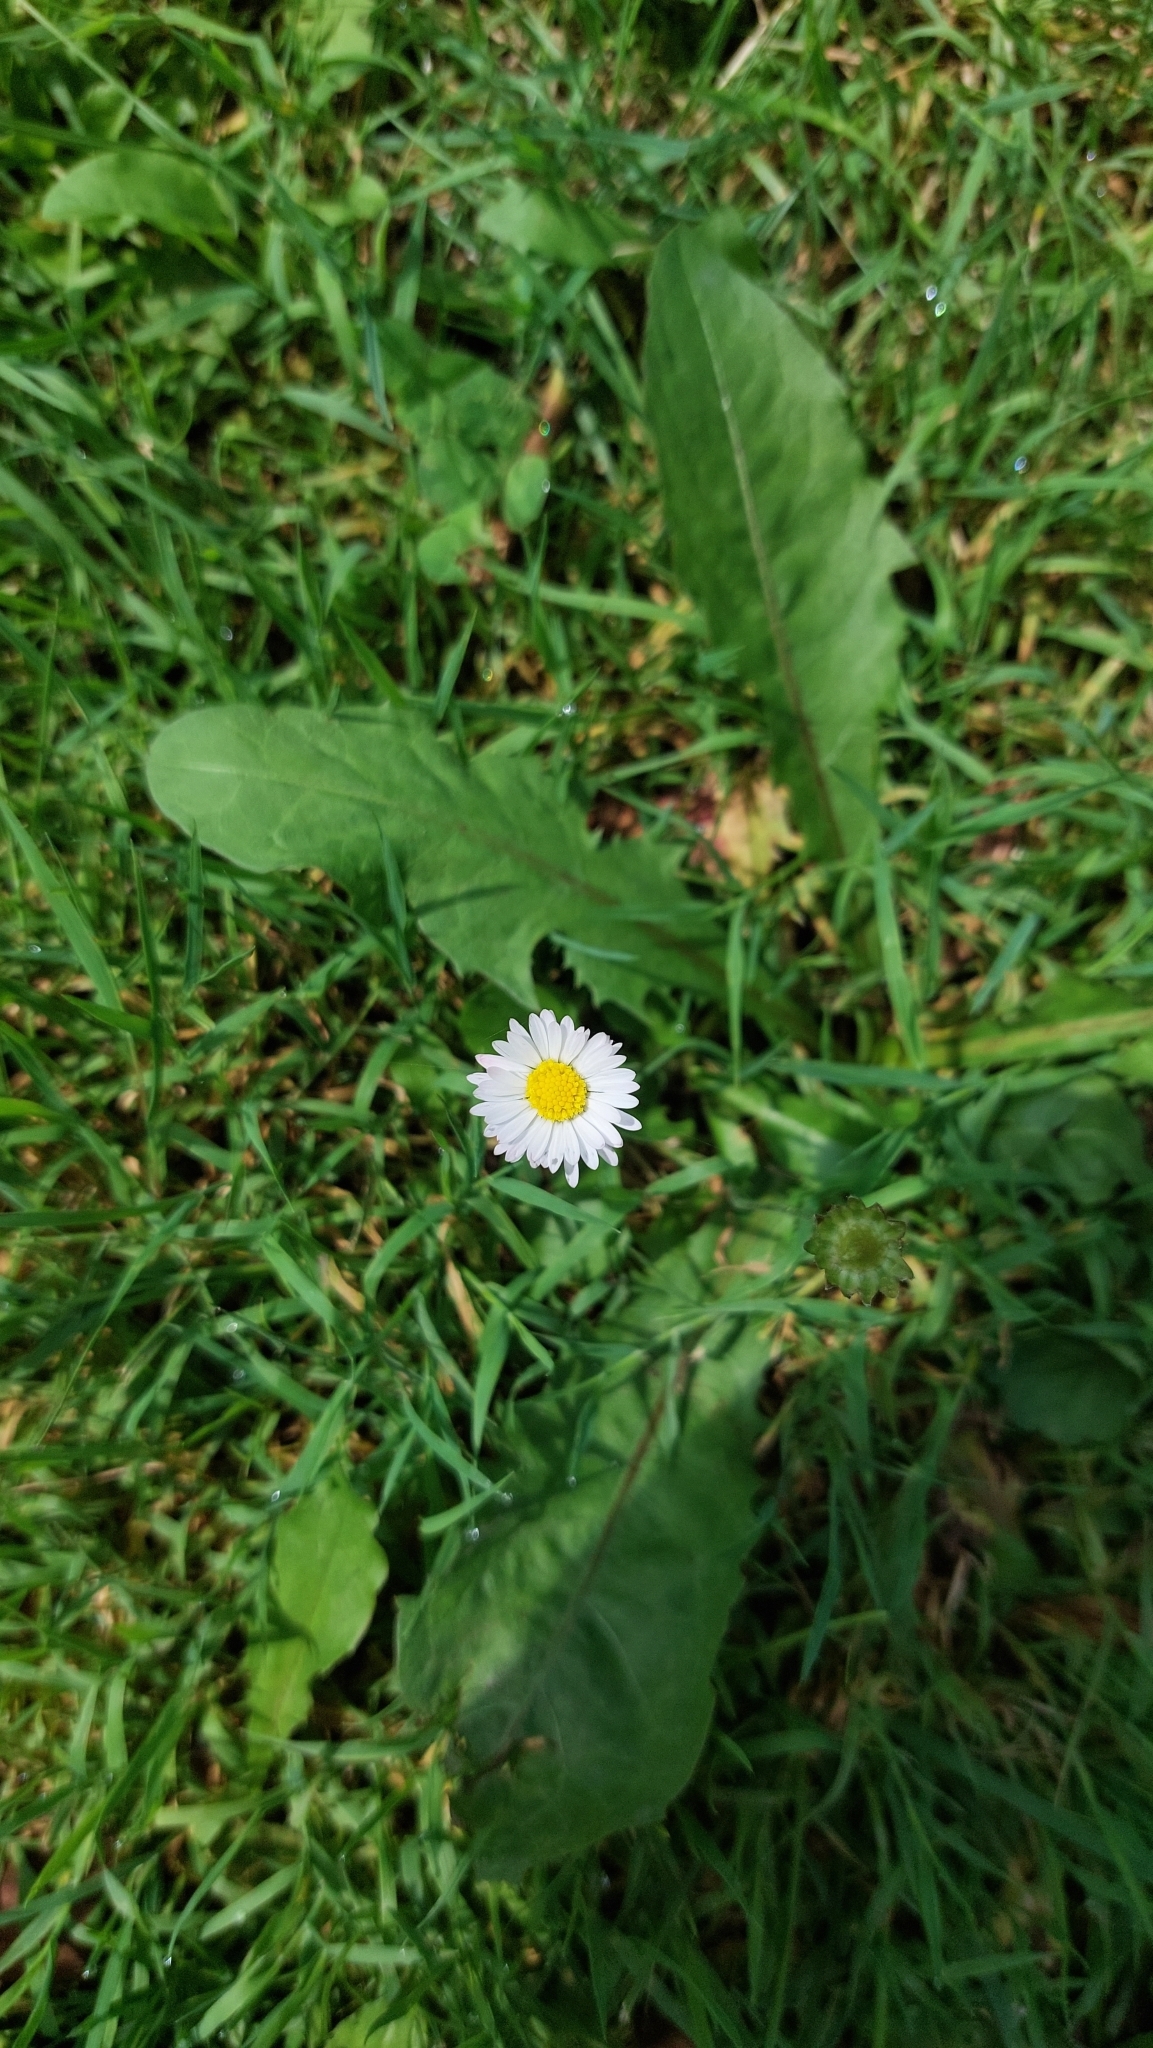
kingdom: Plantae
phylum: Tracheophyta
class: Magnoliopsida
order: Asterales
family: Asteraceae
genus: Bellis
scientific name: Bellis perennis
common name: Lawndaisy
